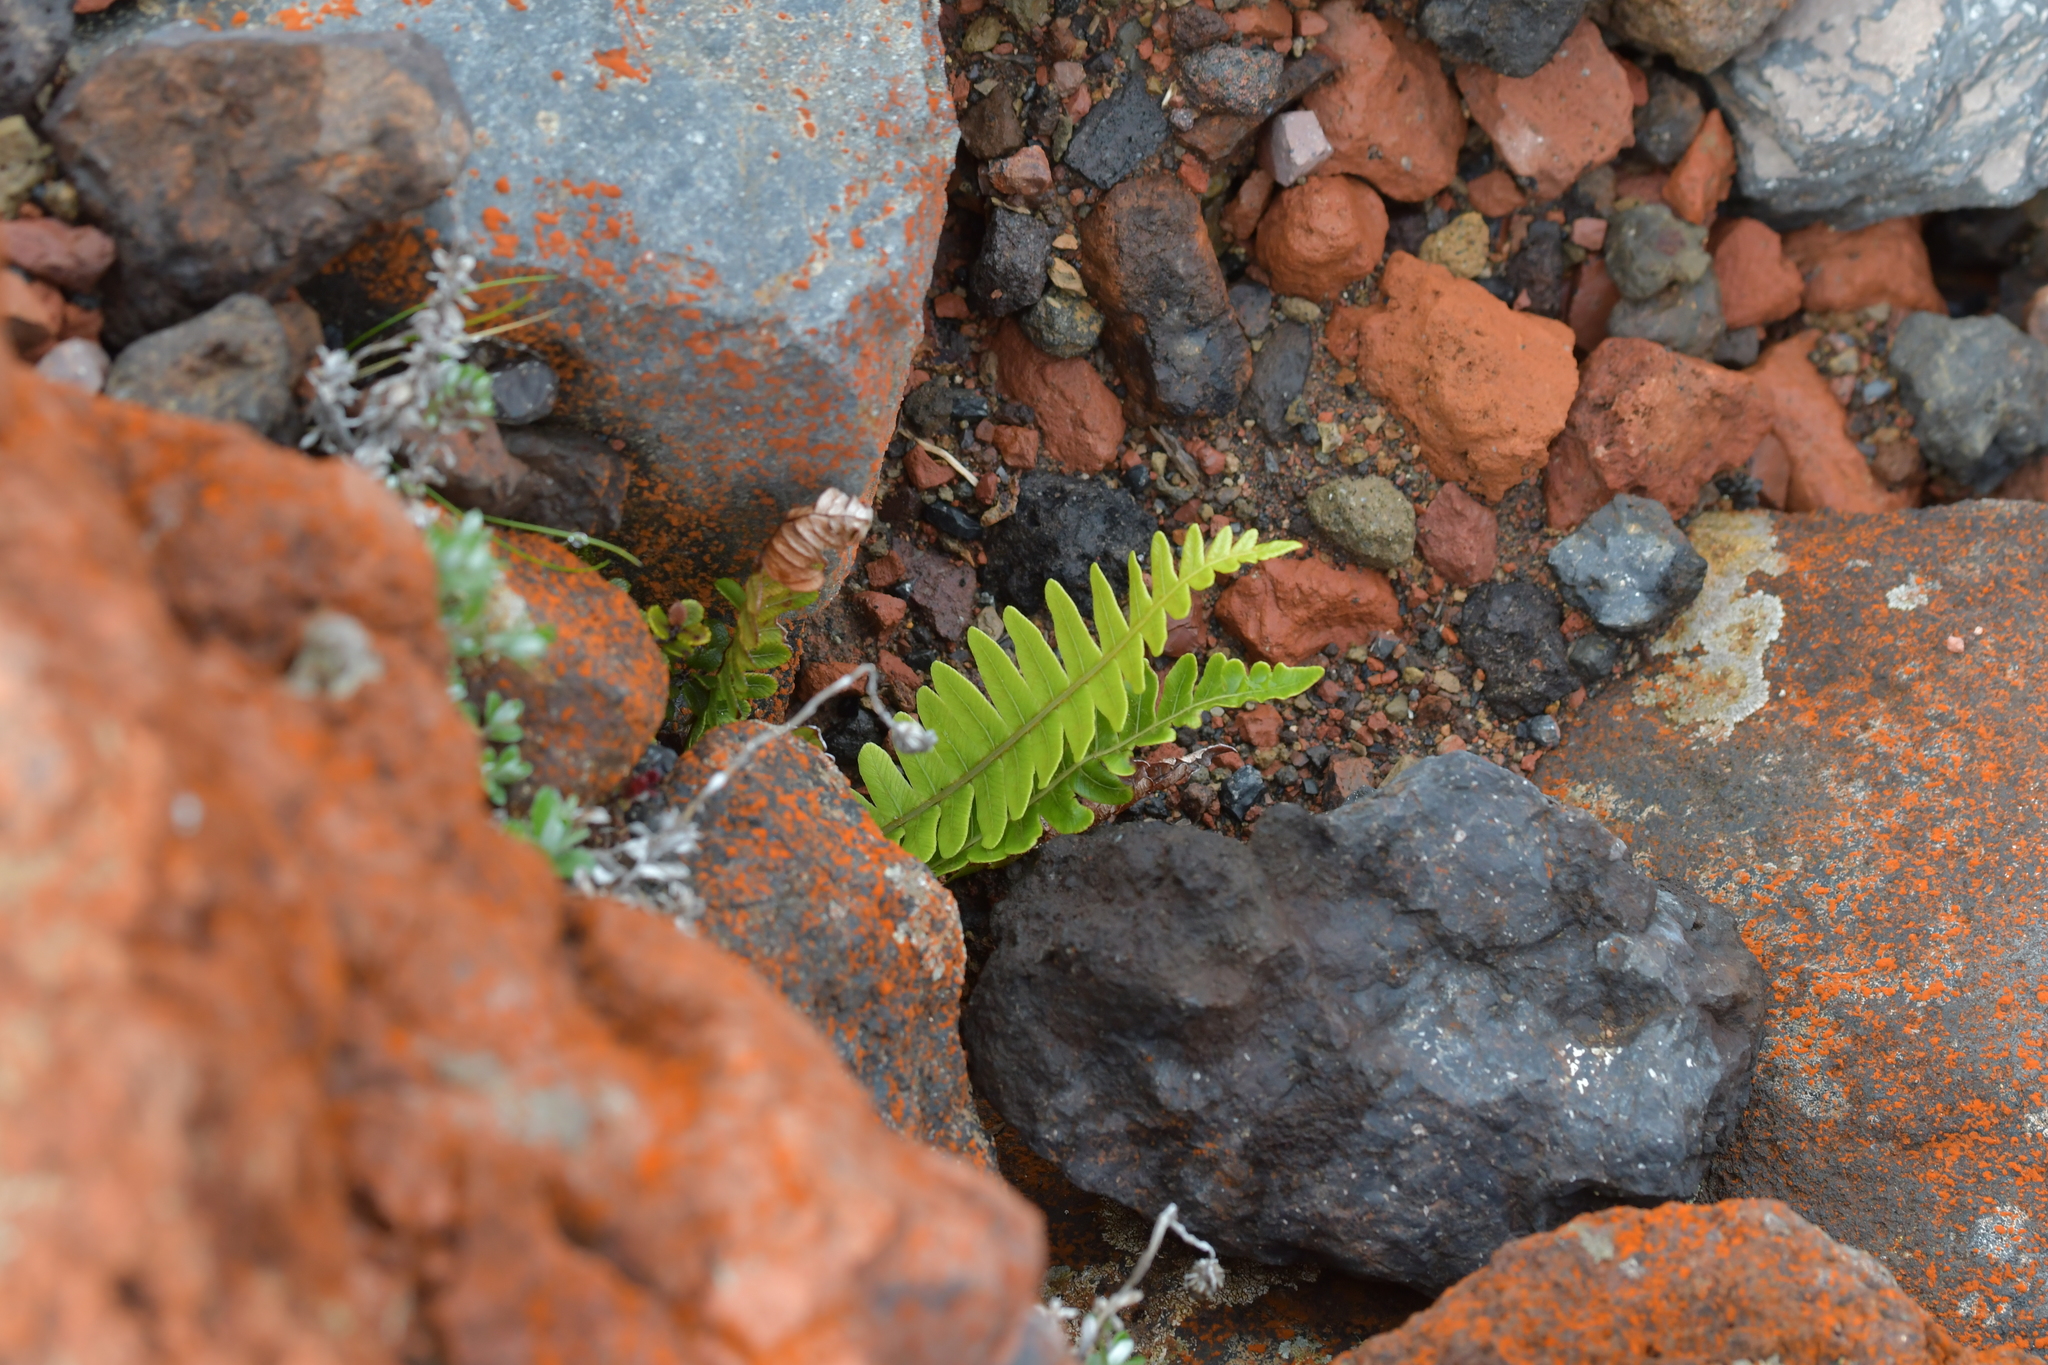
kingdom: Plantae
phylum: Tracheophyta
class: Polypodiopsida
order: Polypodiales
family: Blechnaceae
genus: Lomaria
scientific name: Lomaria discolor
